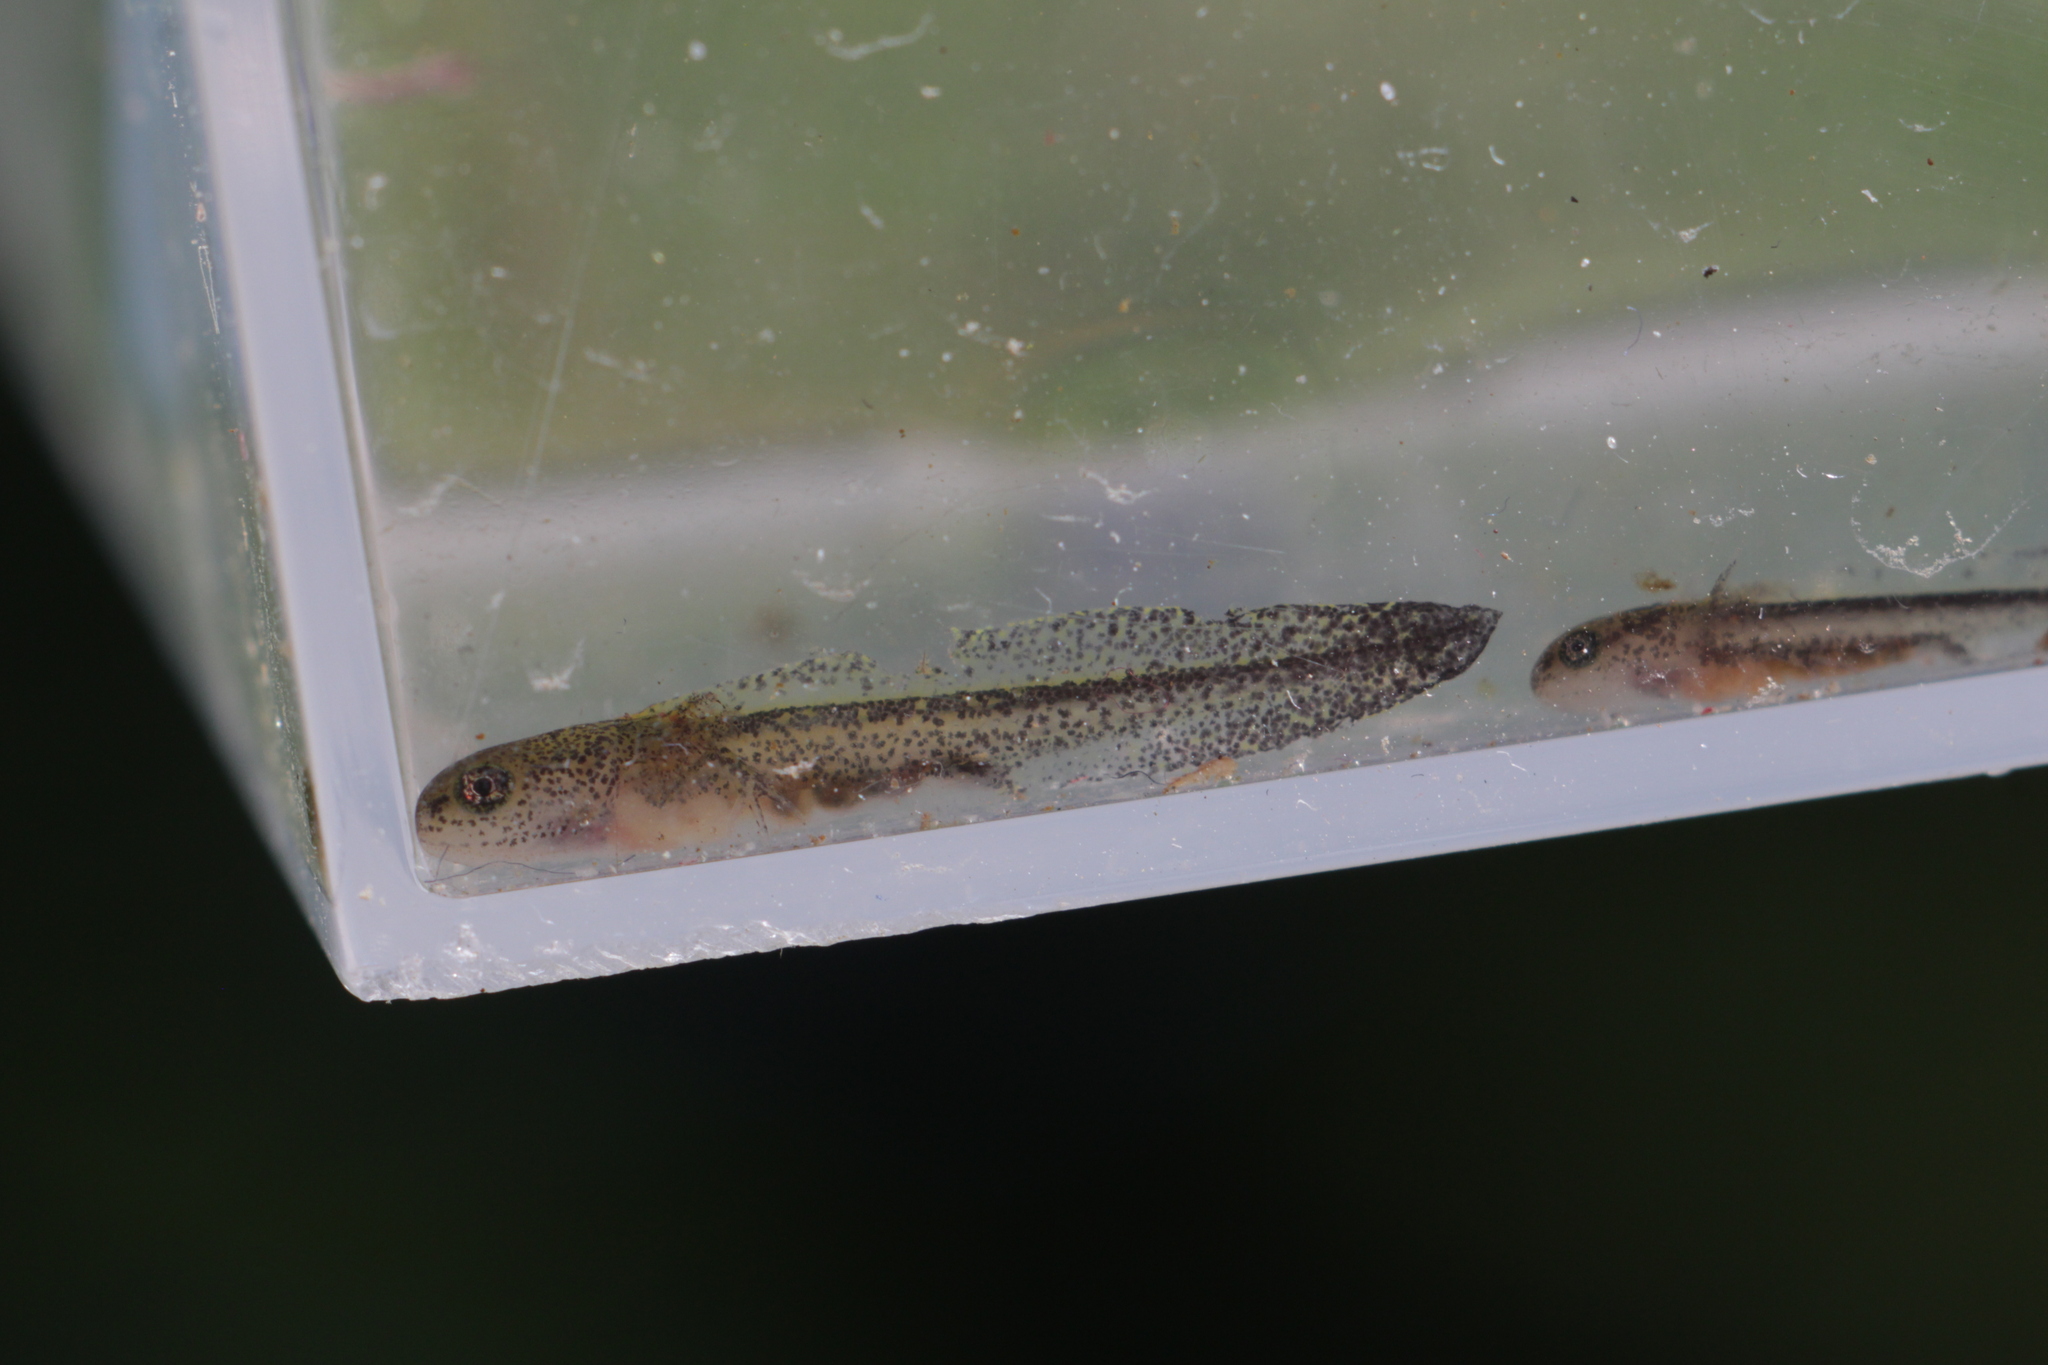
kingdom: Animalia
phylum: Chordata
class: Amphibia
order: Caudata
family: Salamandridae
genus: Ichthyosaura
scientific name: Ichthyosaura alpestris
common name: Alpine newt
